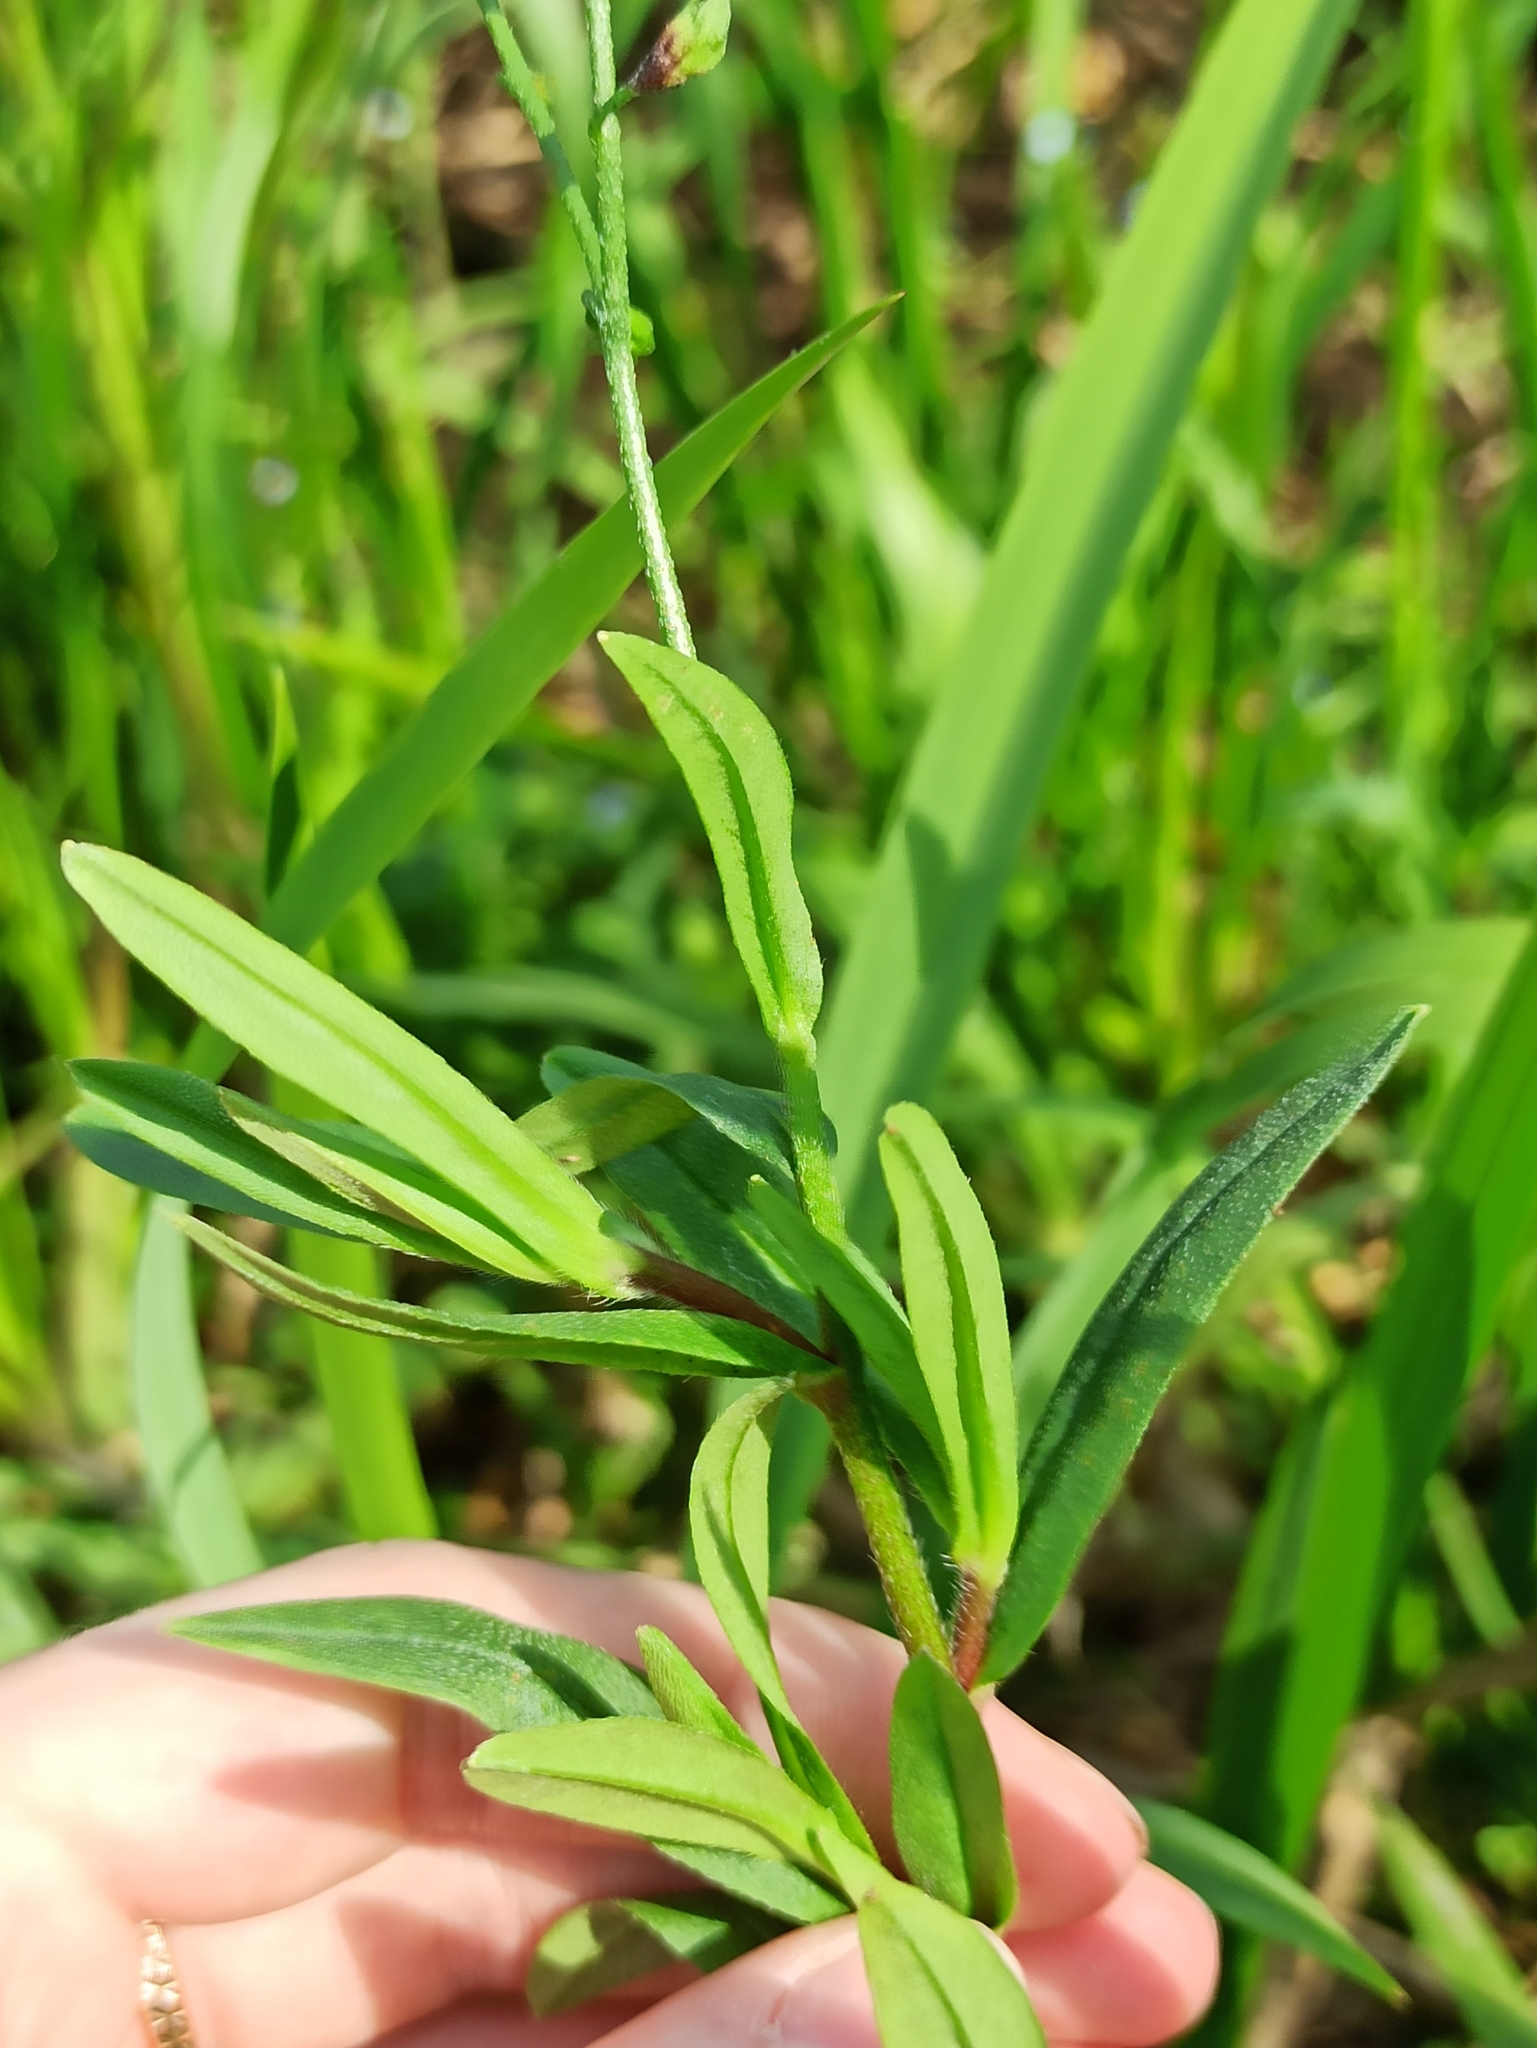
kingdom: Plantae
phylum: Tracheophyta
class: Magnoliopsida
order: Boraginales
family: Boraginaceae
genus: Myosotis
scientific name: Myosotis scorpioides
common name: Water forget-me-not
